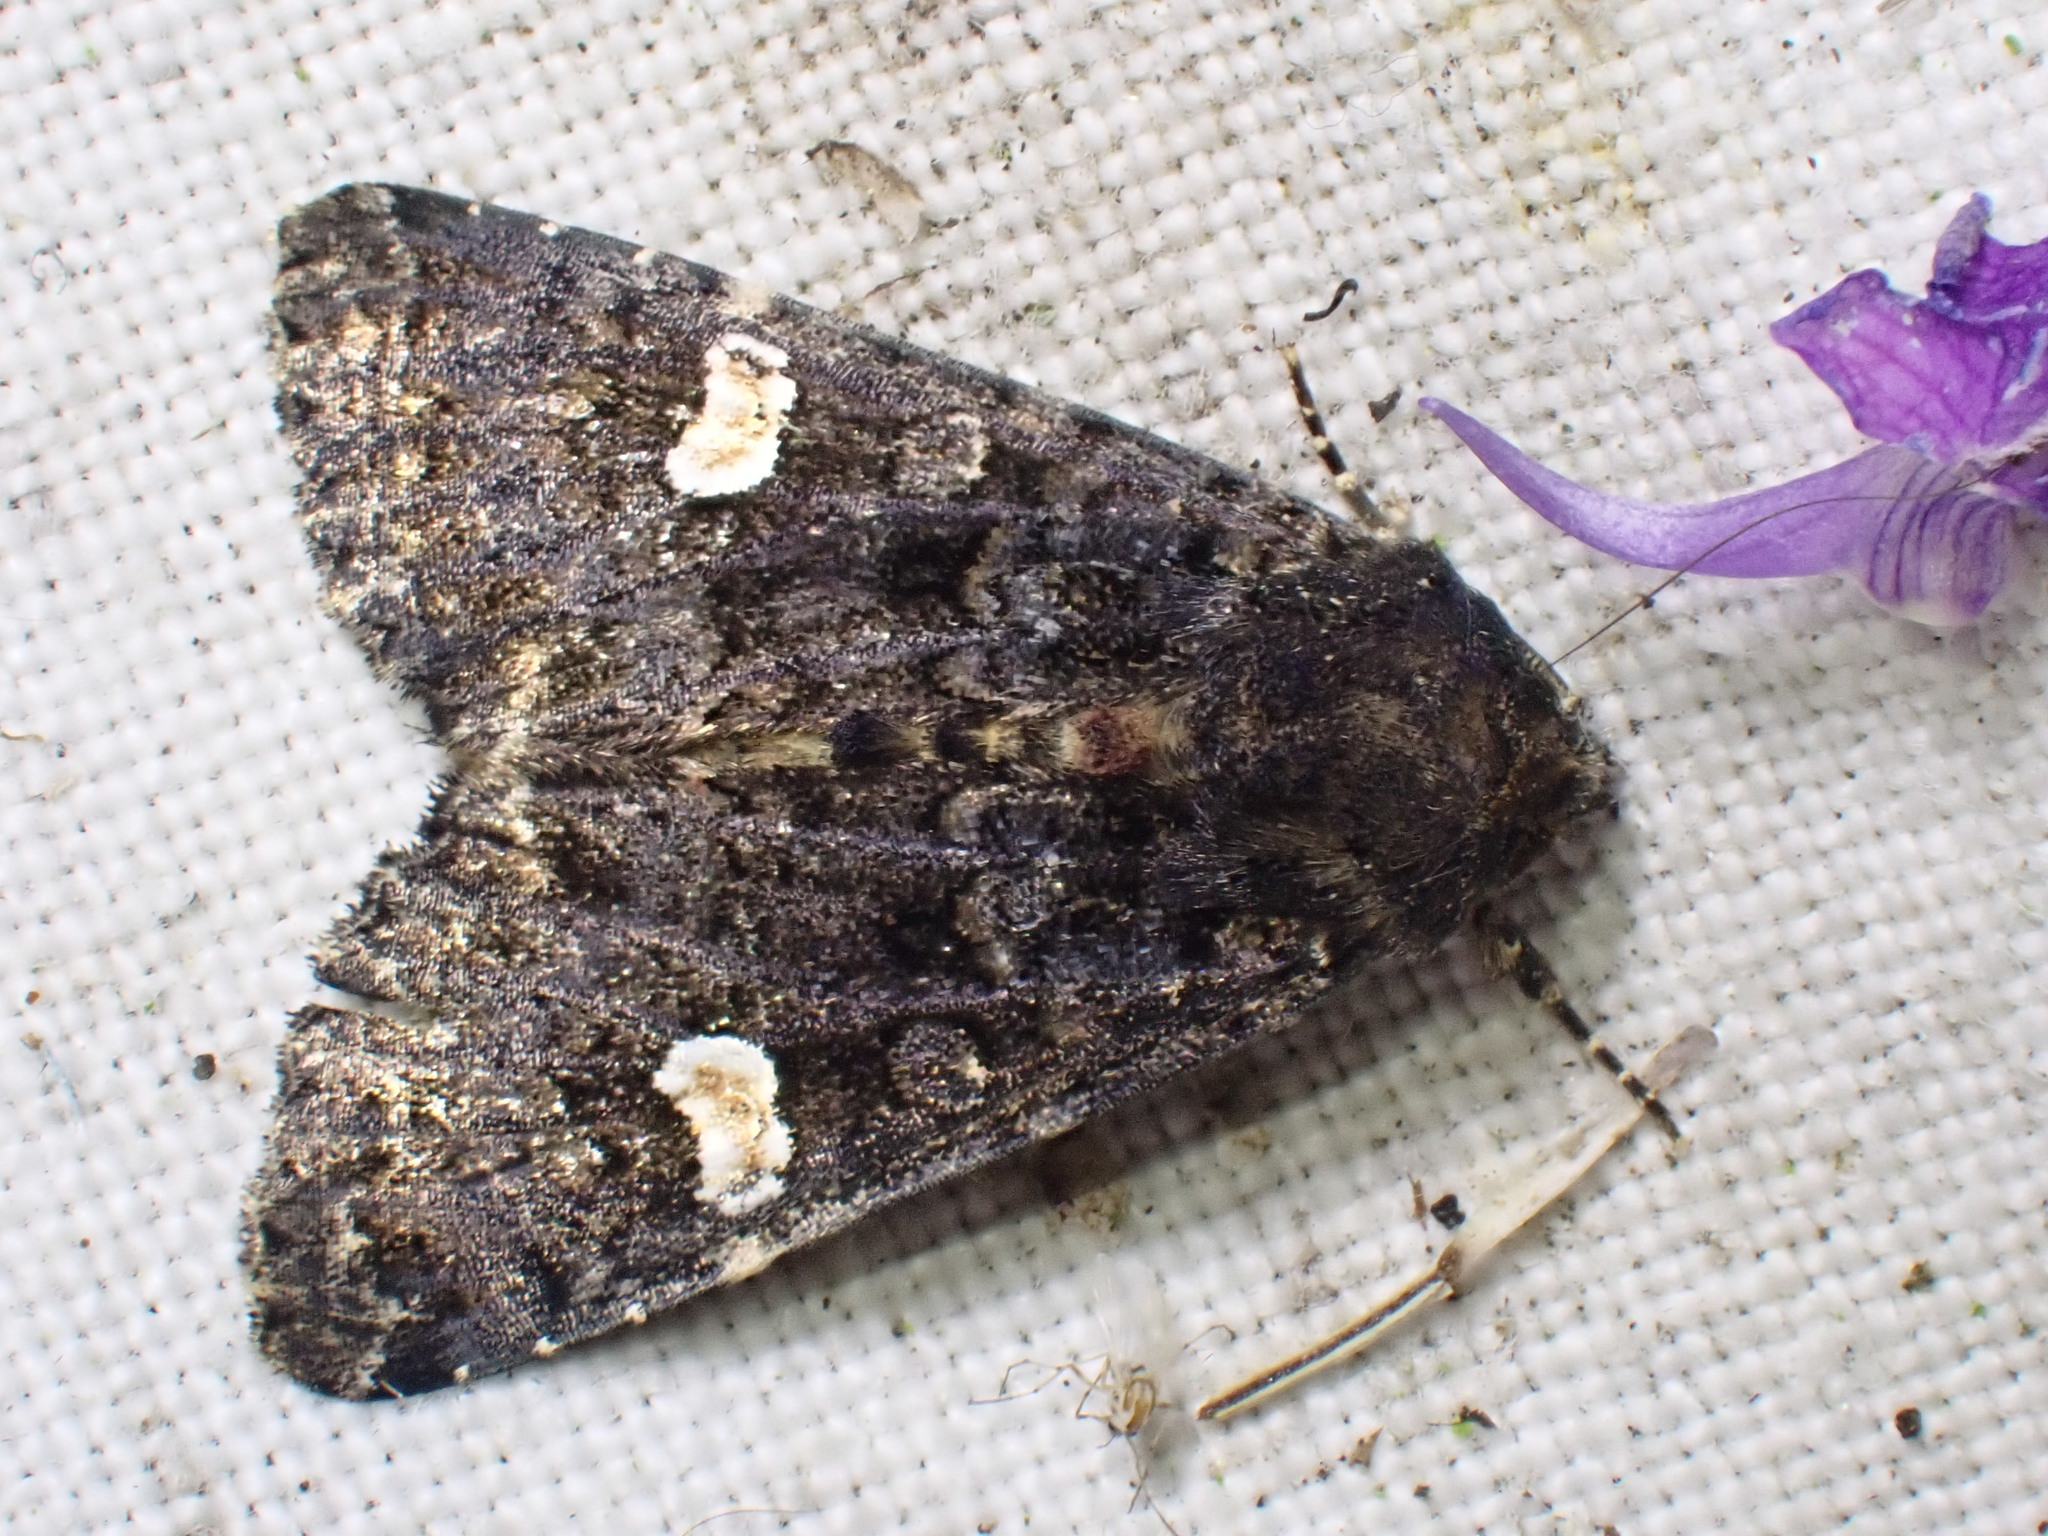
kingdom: Animalia
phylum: Arthropoda
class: Insecta
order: Lepidoptera
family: Noctuidae
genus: Melanchra
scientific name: Melanchra persicariae
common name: Dot moth
